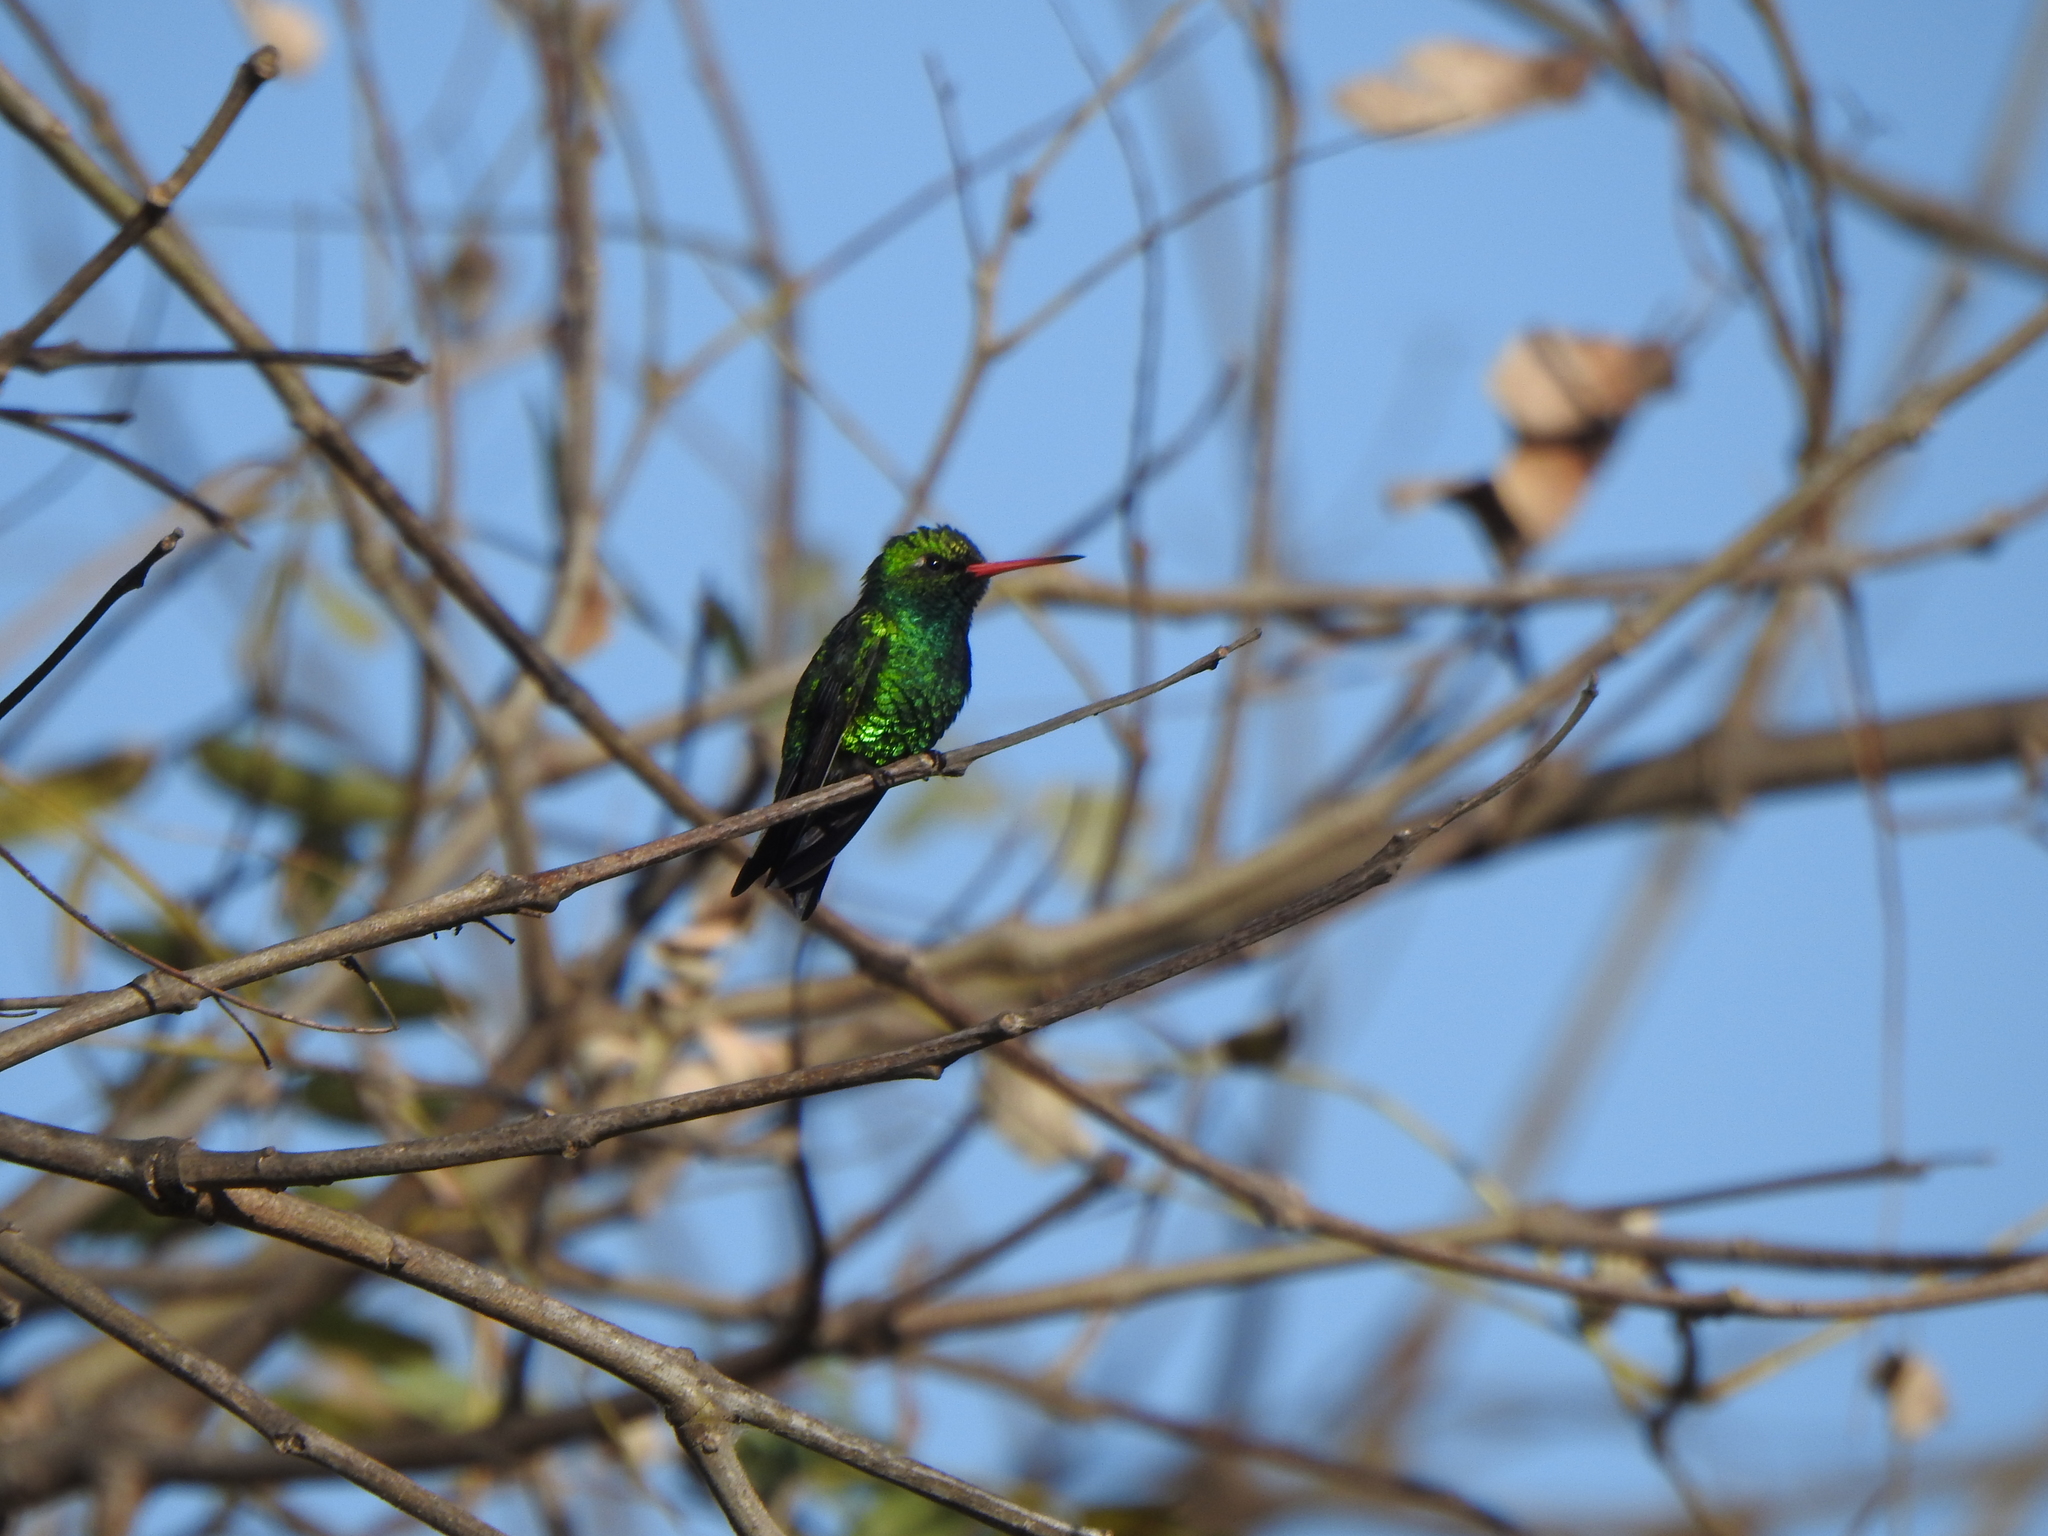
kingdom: Animalia
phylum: Chordata
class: Aves
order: Apodiformes
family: Trochilidae
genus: Chlorostilbon
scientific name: Chlorostilbon lucidus
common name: Glittering-bellied emerald
